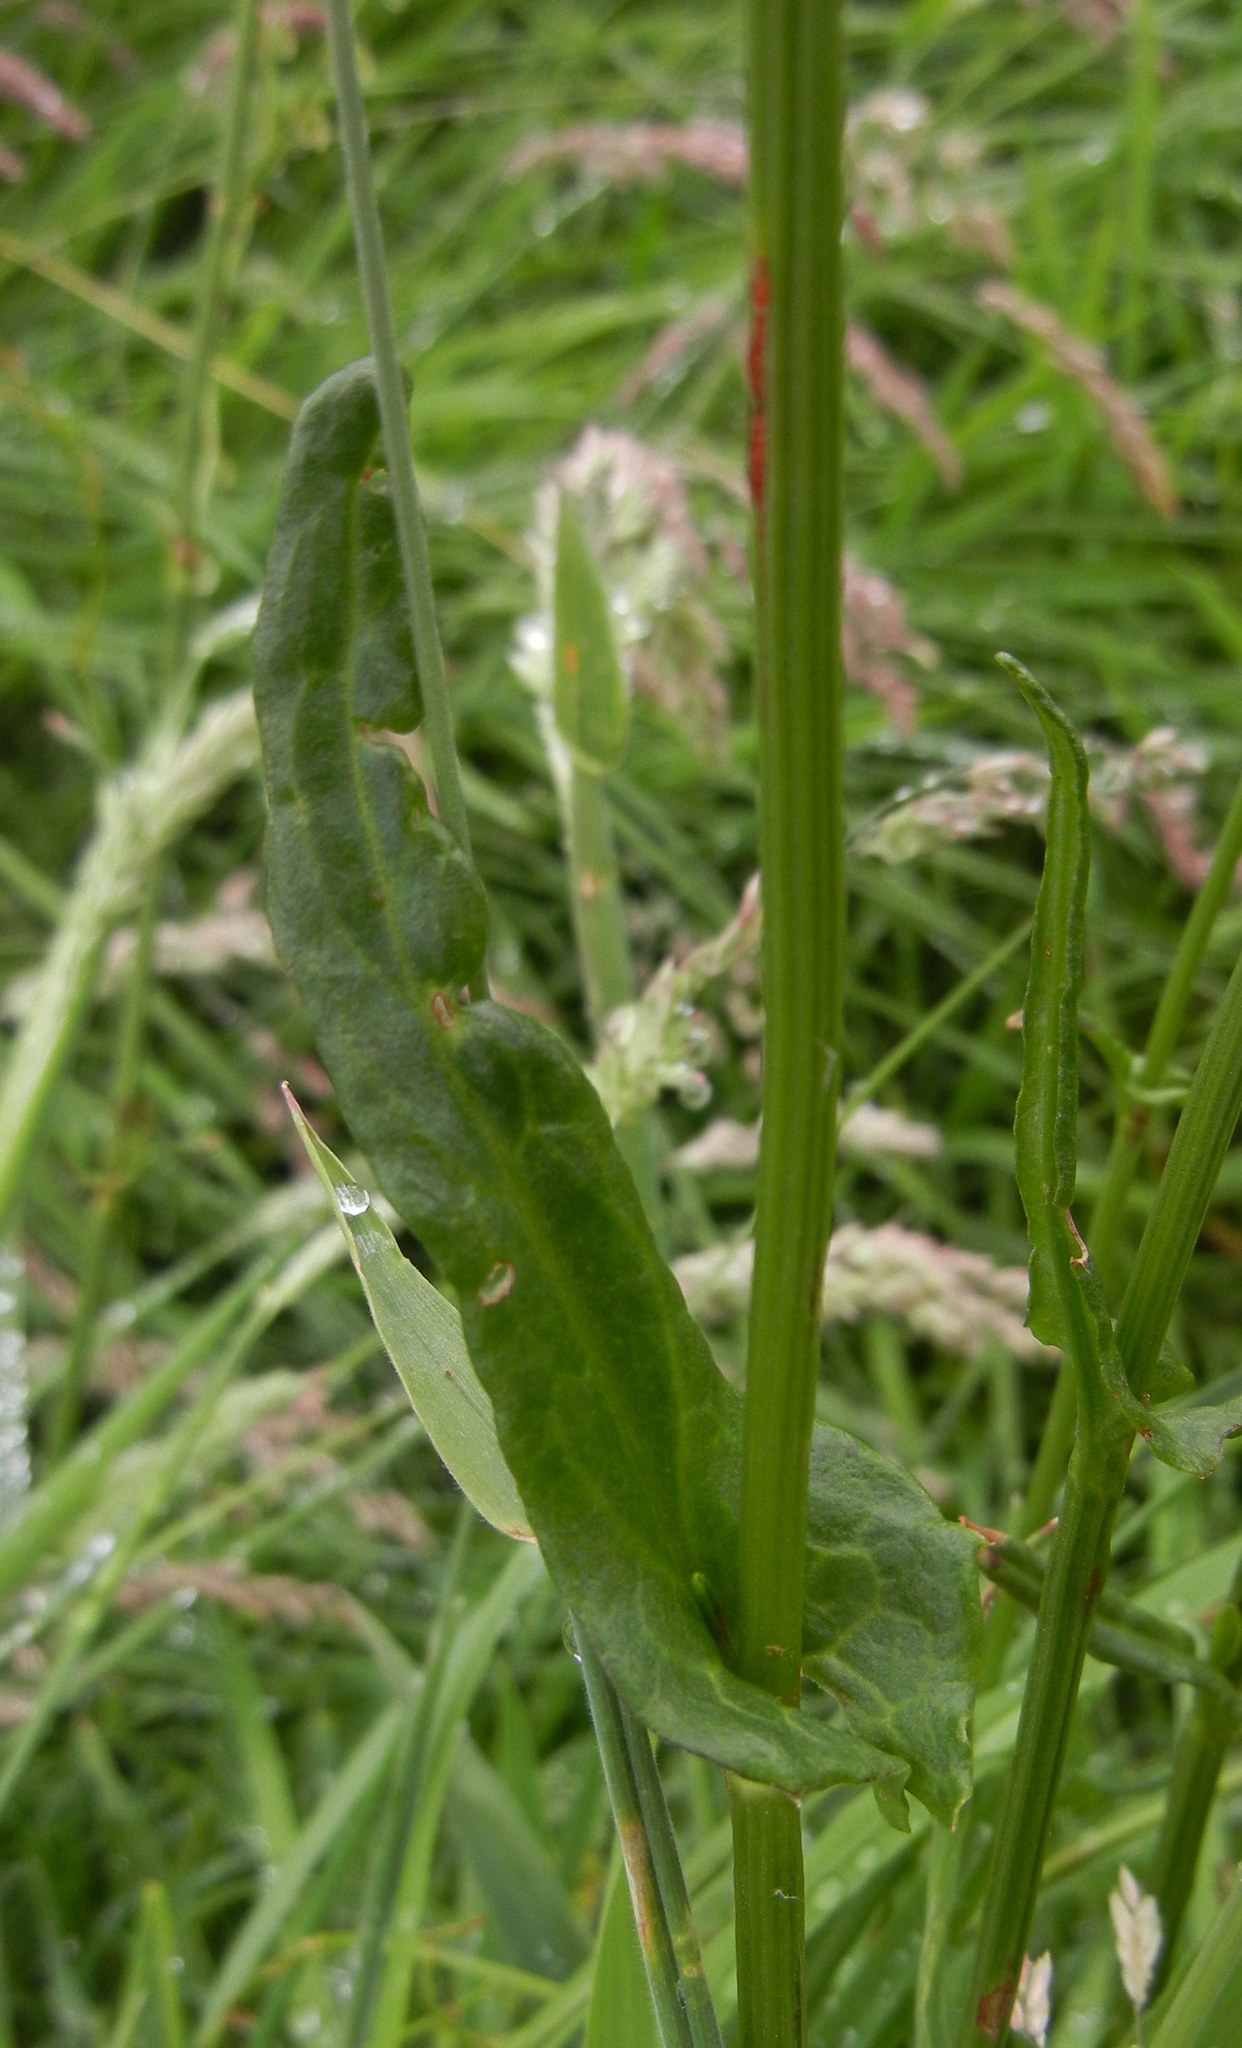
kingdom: Plantae
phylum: Tracheophyta
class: Magnoliopsida
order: Caryophyllales
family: Polygonaceae
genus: Rumex
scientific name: Rumex acetosa
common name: Garden sorrel
